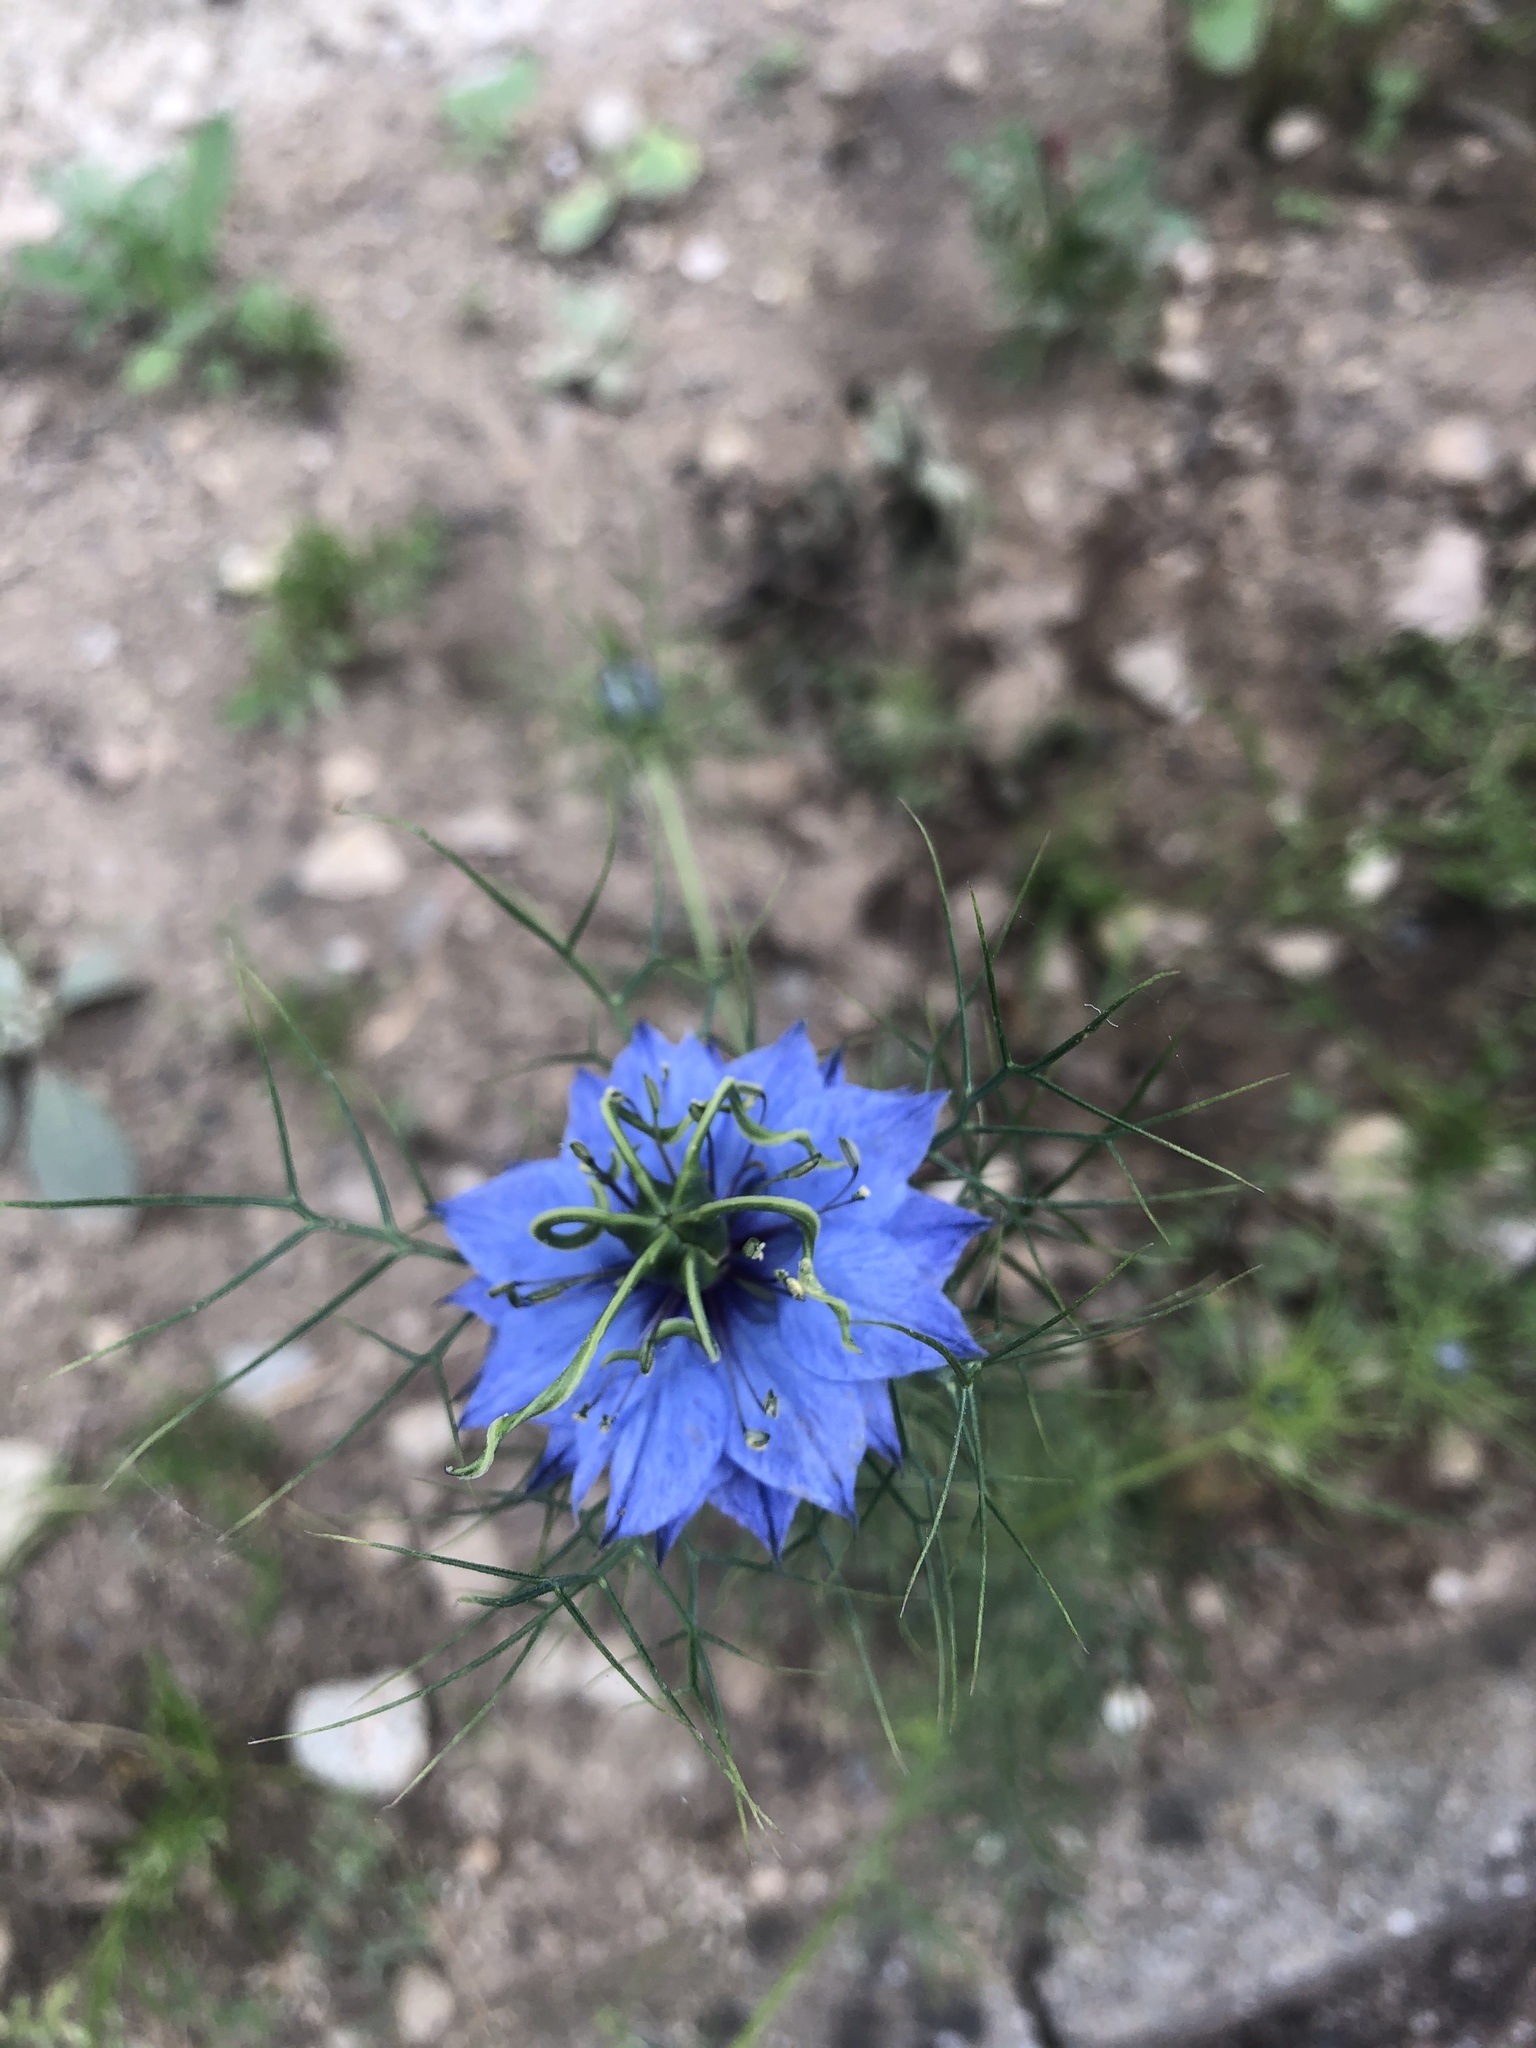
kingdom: Plantae
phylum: Tracheophyta
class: Magnoliopsida
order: Ranunculales
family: Ranunculaceae
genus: Nigella
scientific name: Nigella damascena
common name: Love-in-a-mist
